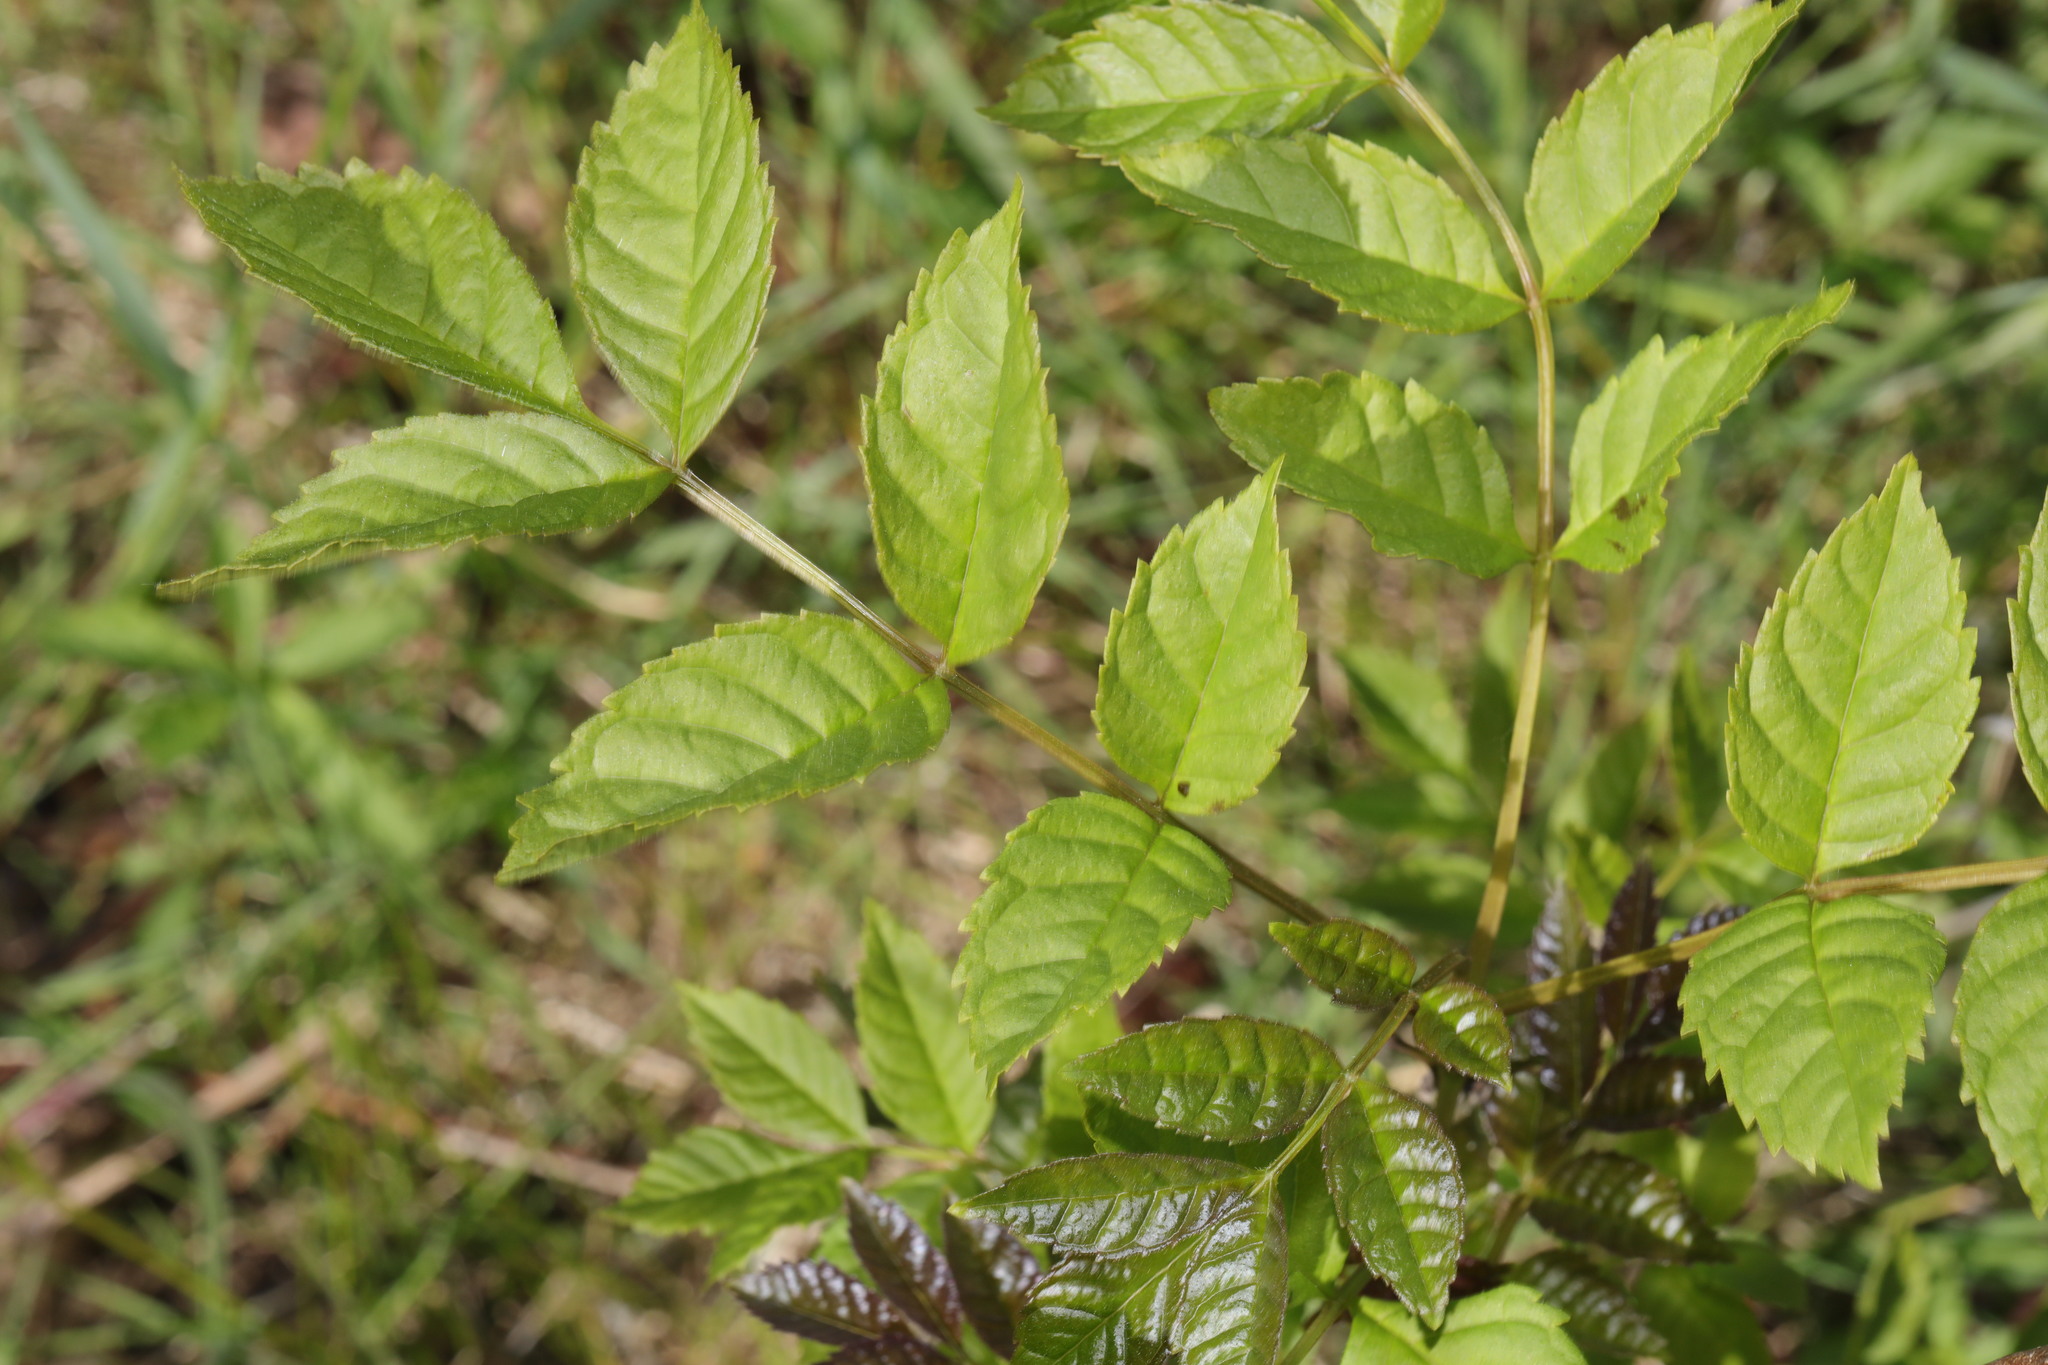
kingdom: Plantae
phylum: Tracheophyta
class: Magnoliopsida
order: Lamiales
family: Oleaceae
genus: Fraxinus
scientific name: Fraxinus excelsior
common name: European ash
